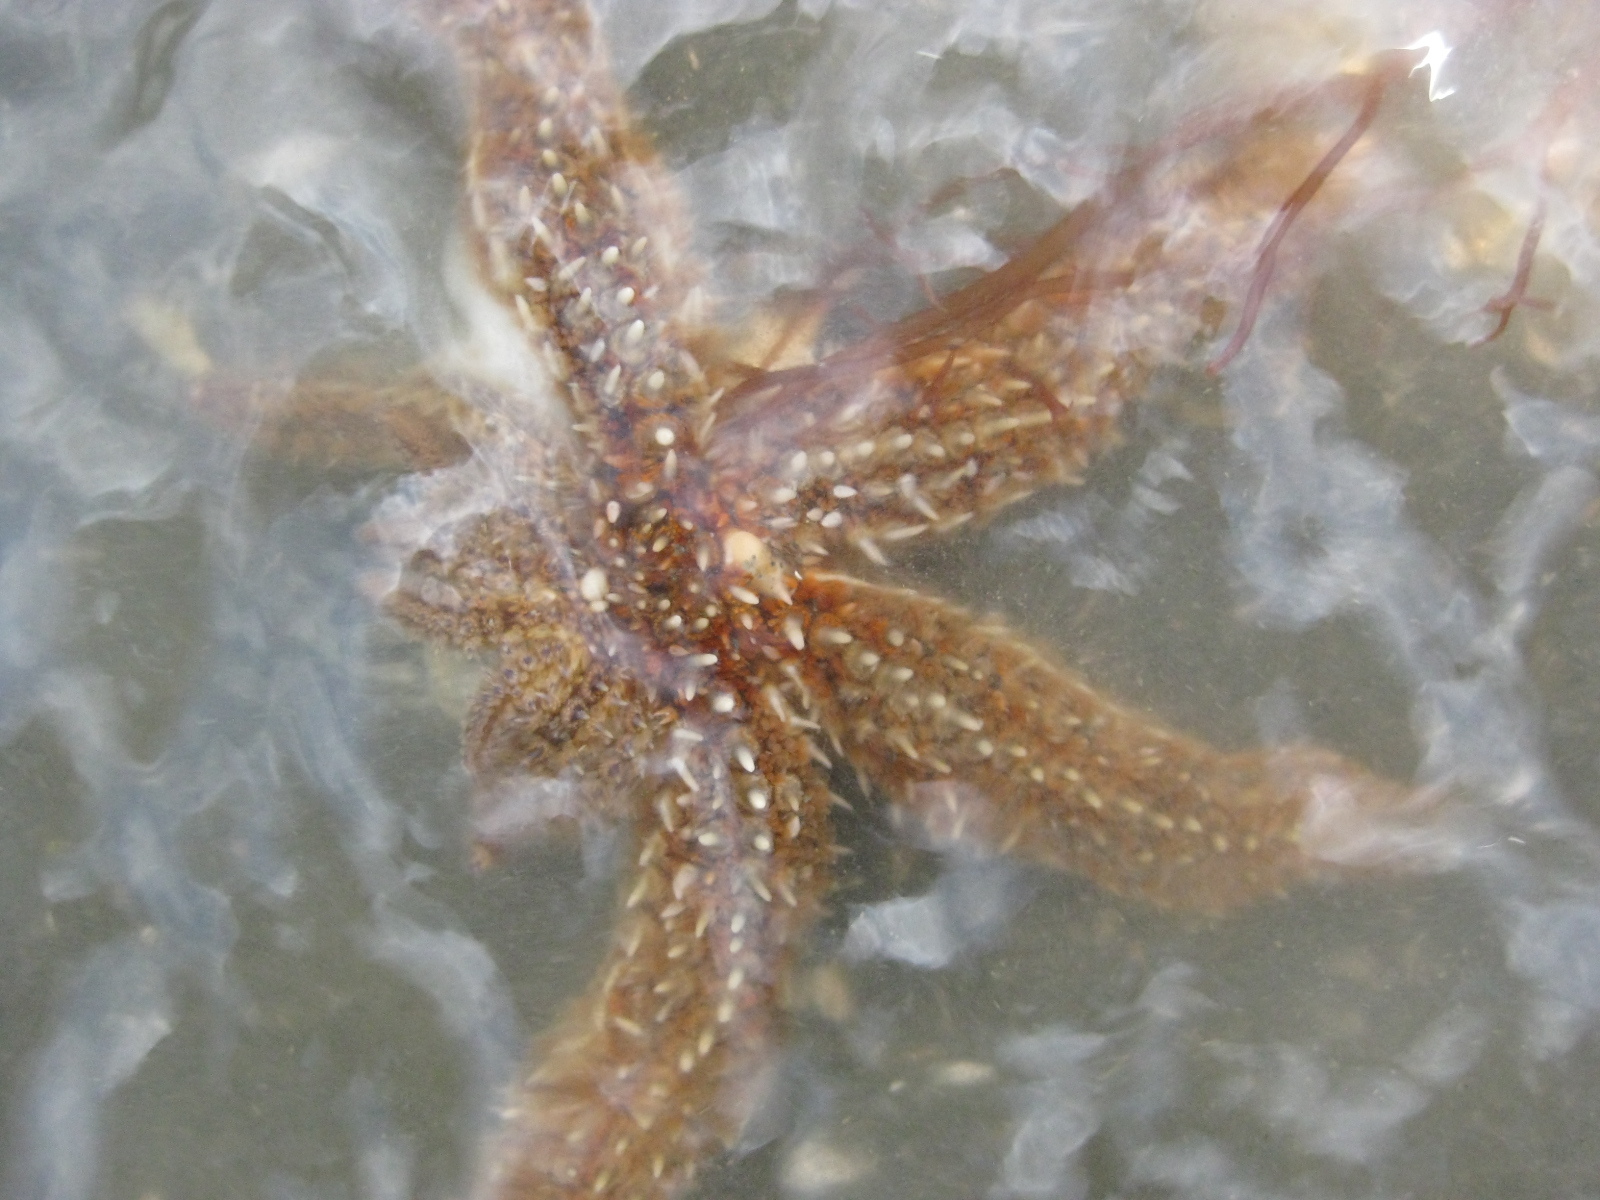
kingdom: Animalia
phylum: Echinodermata
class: Asteroidea
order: Forcipulatida
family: Asteriidae
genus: Coscinasterias
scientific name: Coscinasterias muricata
